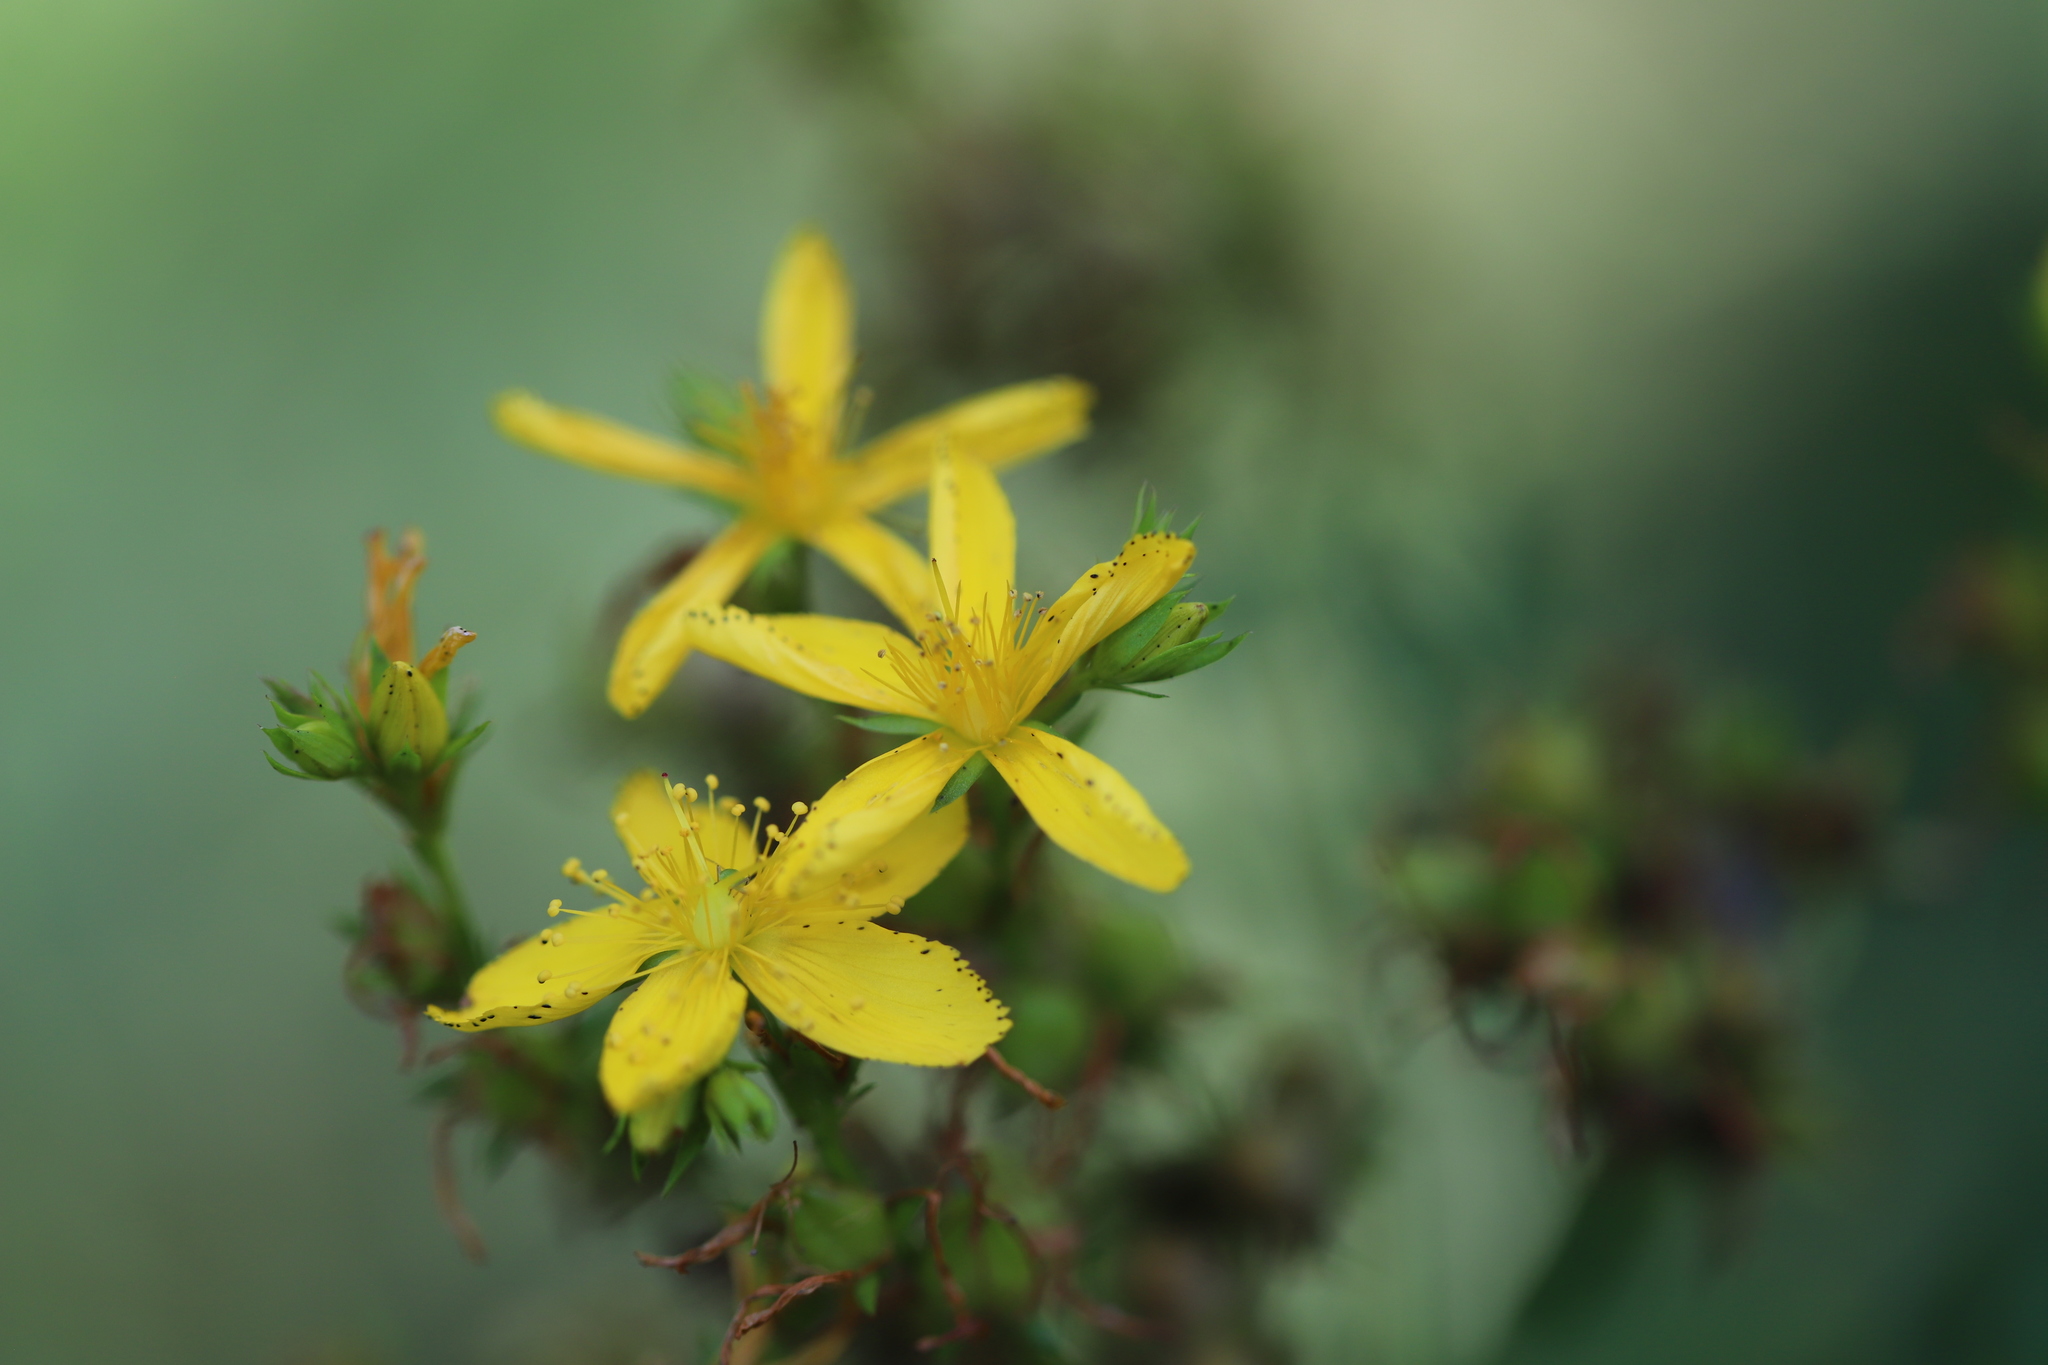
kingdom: Plantae
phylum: Tracheophyta
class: Magnoliopsida
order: Malpighiales
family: Hypericaceae
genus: Hypericum
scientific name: Hypericum perforatum
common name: Common st. johnswort
